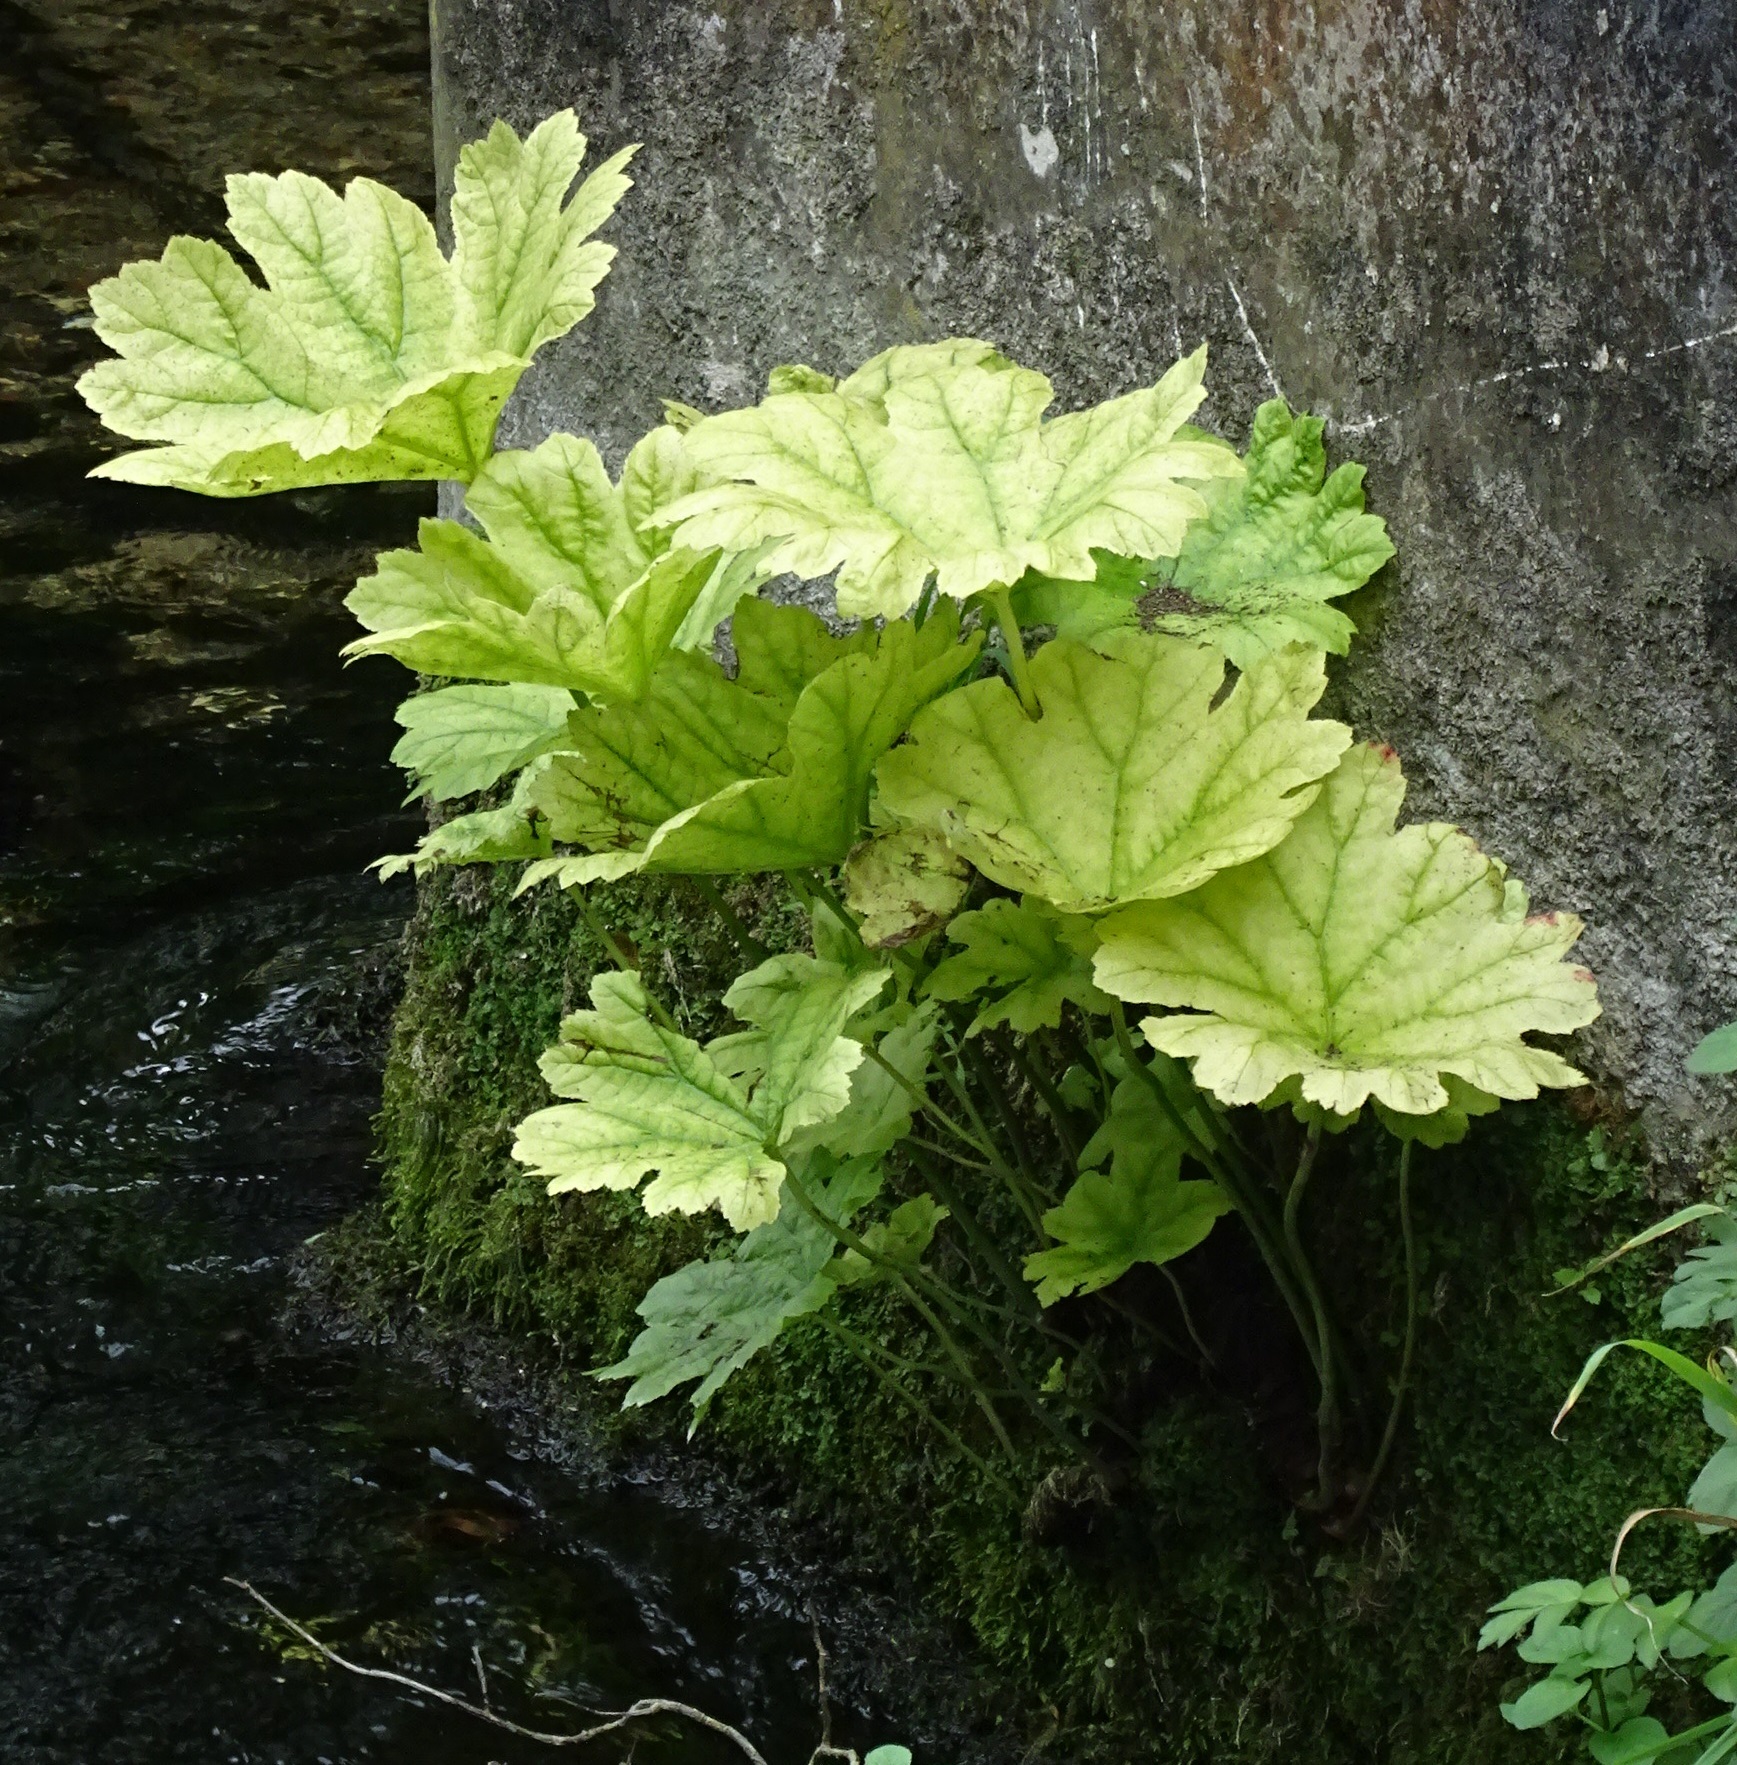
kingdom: Plantae
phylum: Tracheophyta
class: Magnoliopsida
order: Saxifragales
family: Saxifragaceae
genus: Darmera
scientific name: Darmera peltata
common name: Indian-rhubarb
